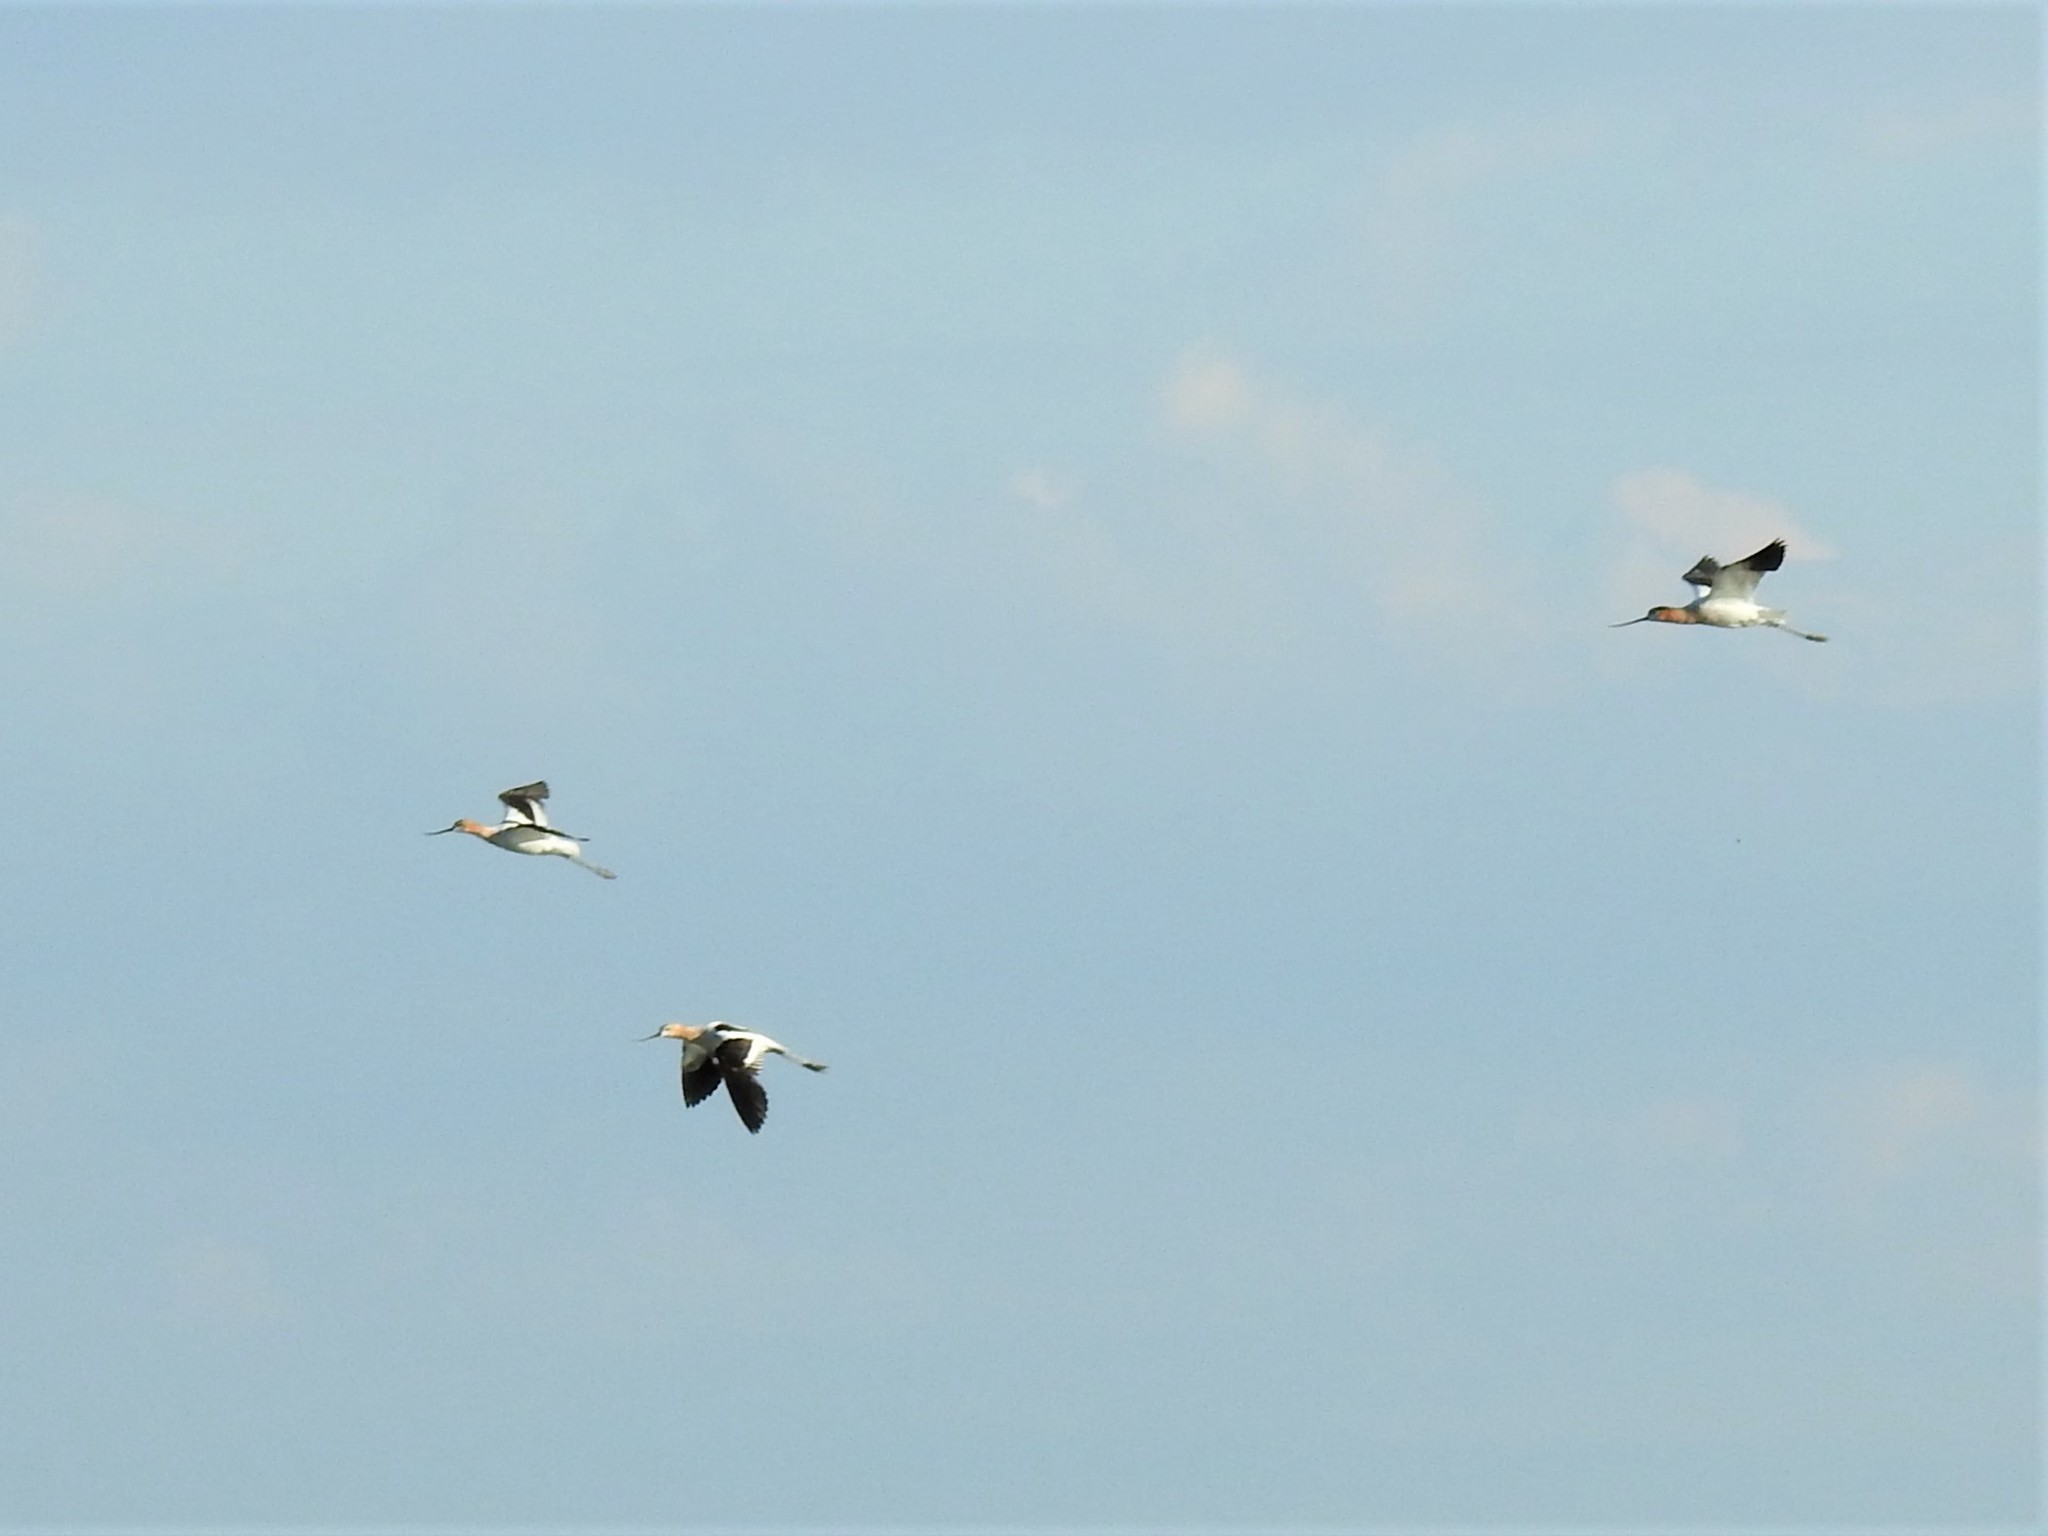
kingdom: Animalia
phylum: Chordata
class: Aves
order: Charadriiformes
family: Recurvirostridae
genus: Recurvirostra
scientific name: Recurvirostra americana
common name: American avocet
